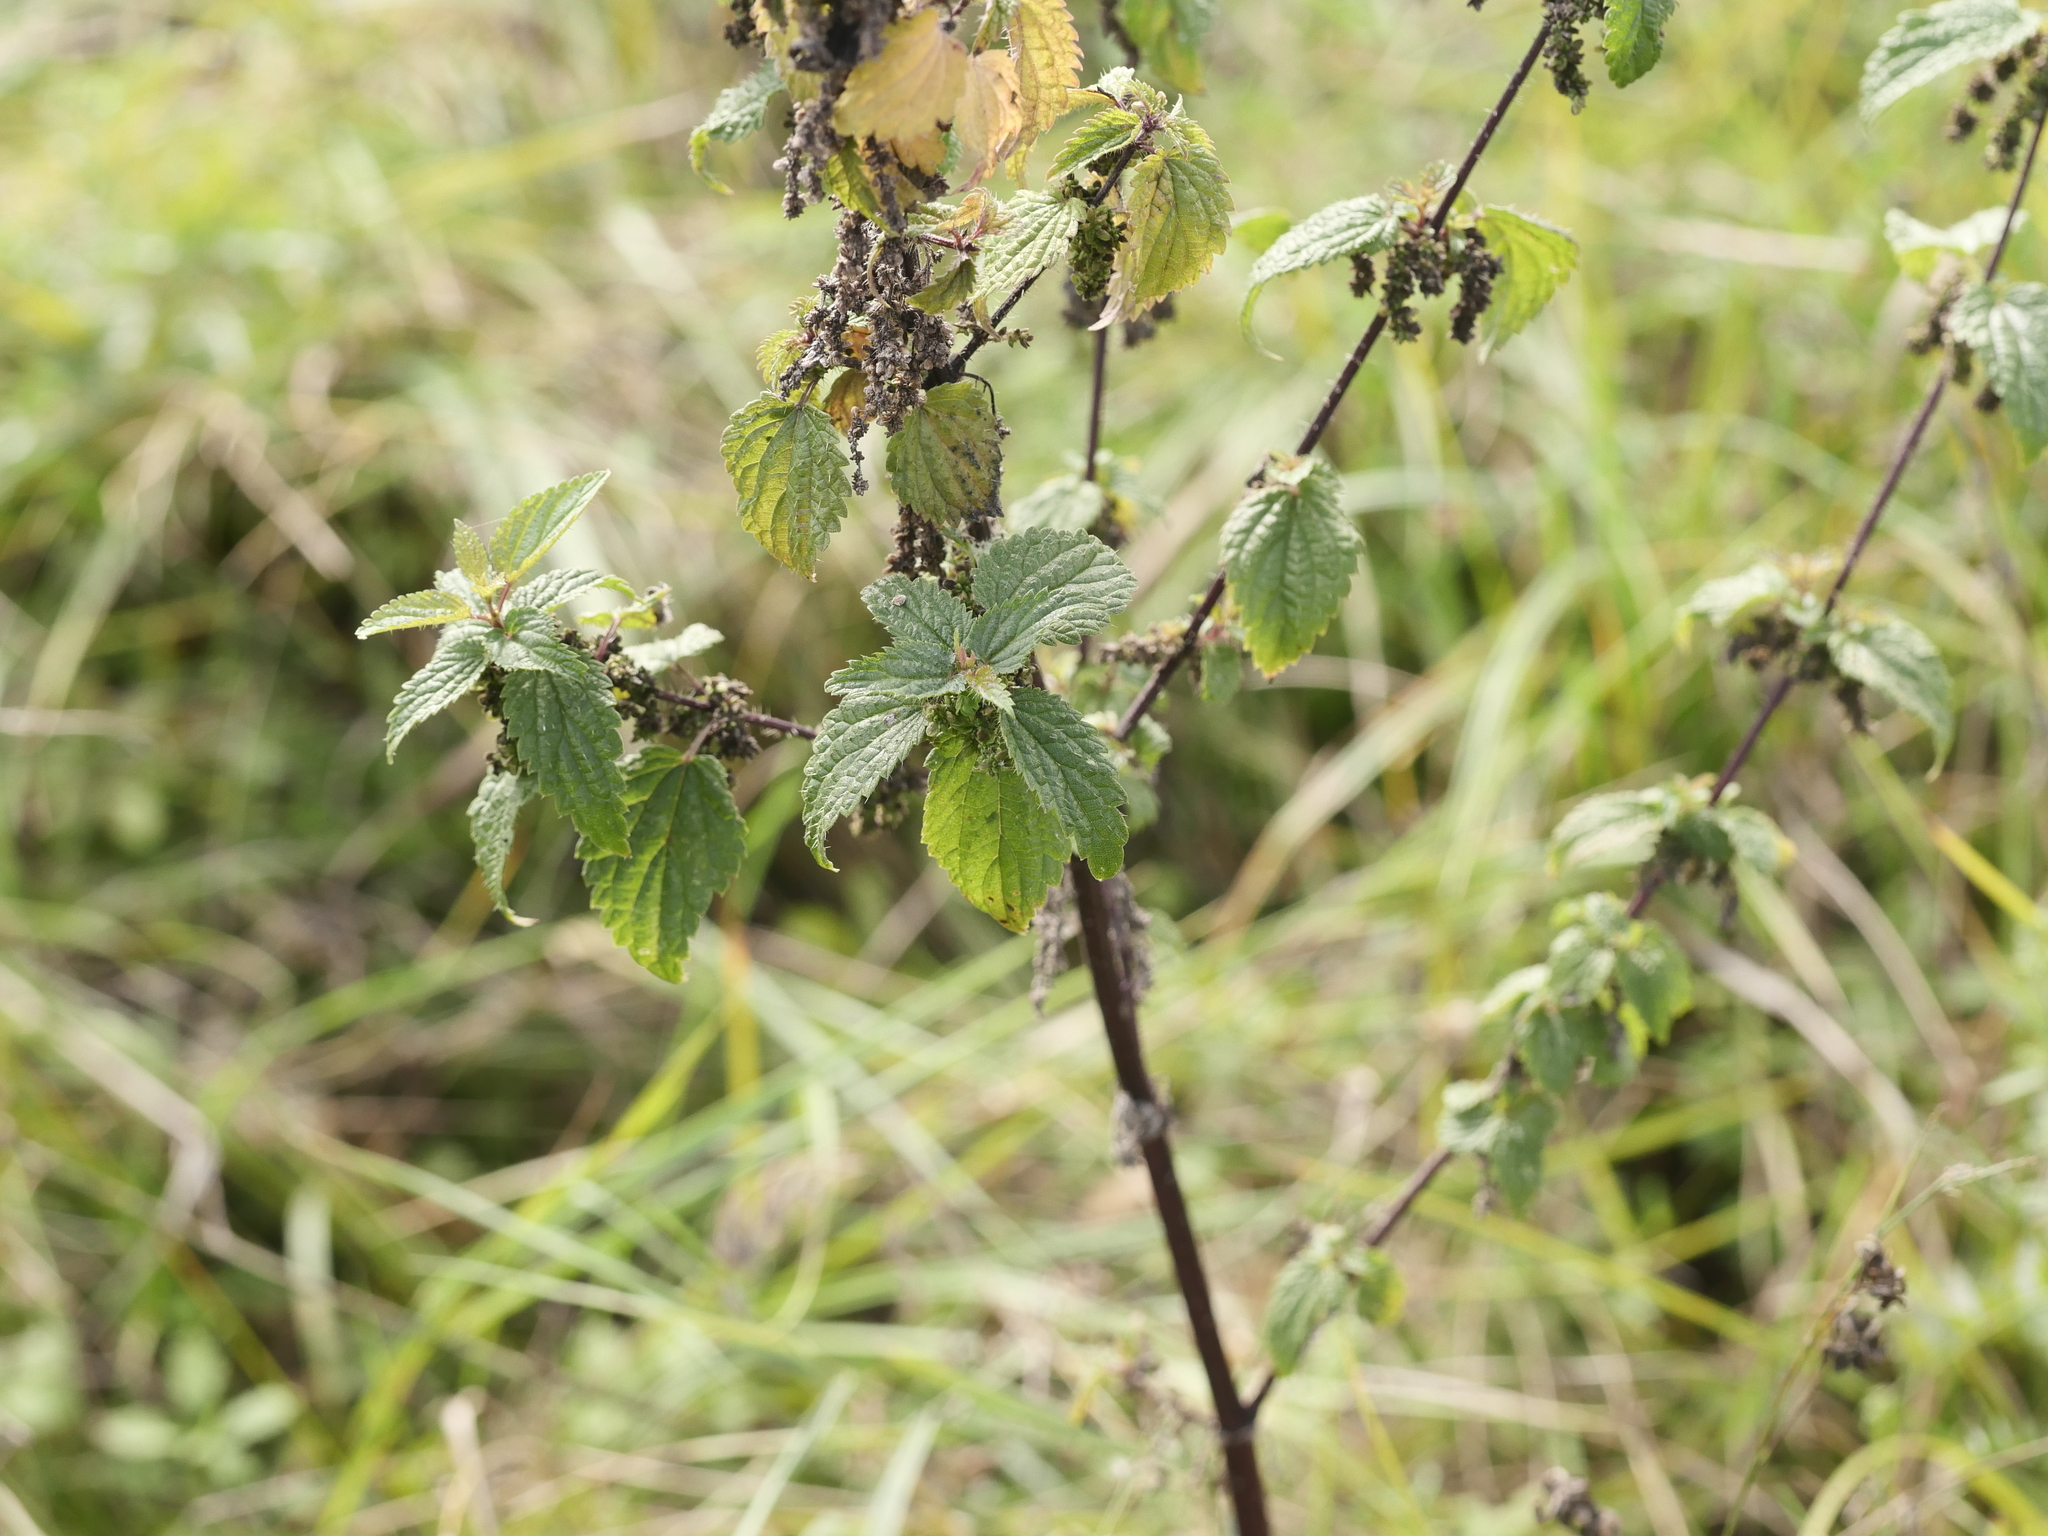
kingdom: Plantae
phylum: Tracheophyta
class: Magnoliopsida
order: Rosales
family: Urticaceae
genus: Urtica
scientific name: Urtica dioica
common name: Common nettle
